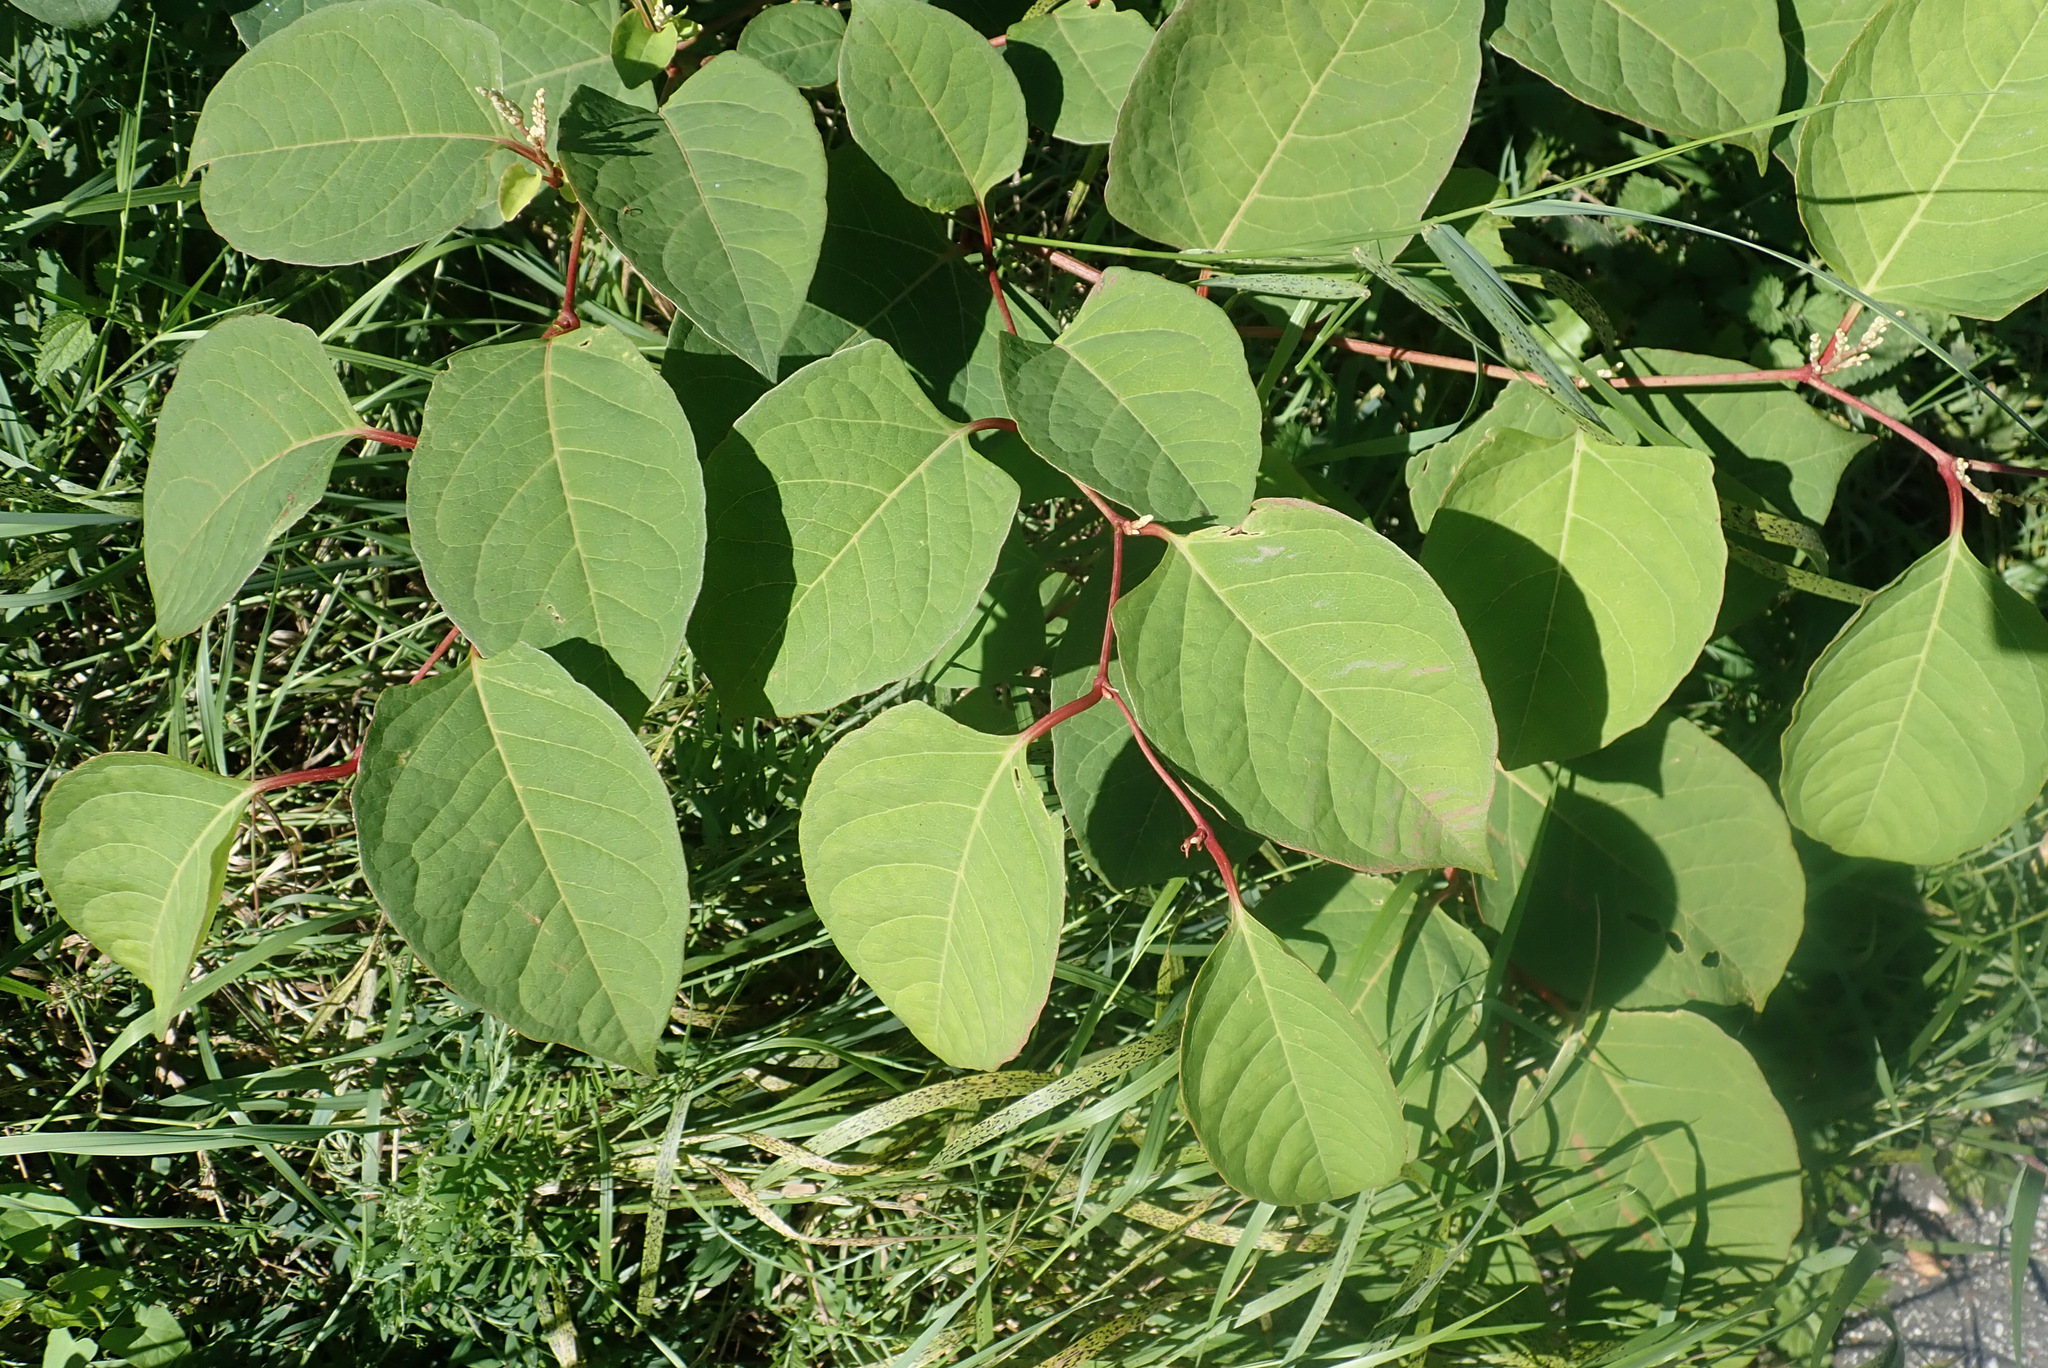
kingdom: Plantae
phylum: Tracheophyta
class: Magnoliopsida
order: Caryophyllales
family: Polygonaceae
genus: Reynoutria
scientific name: Reynoutria japonica
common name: Japanese knotweed
